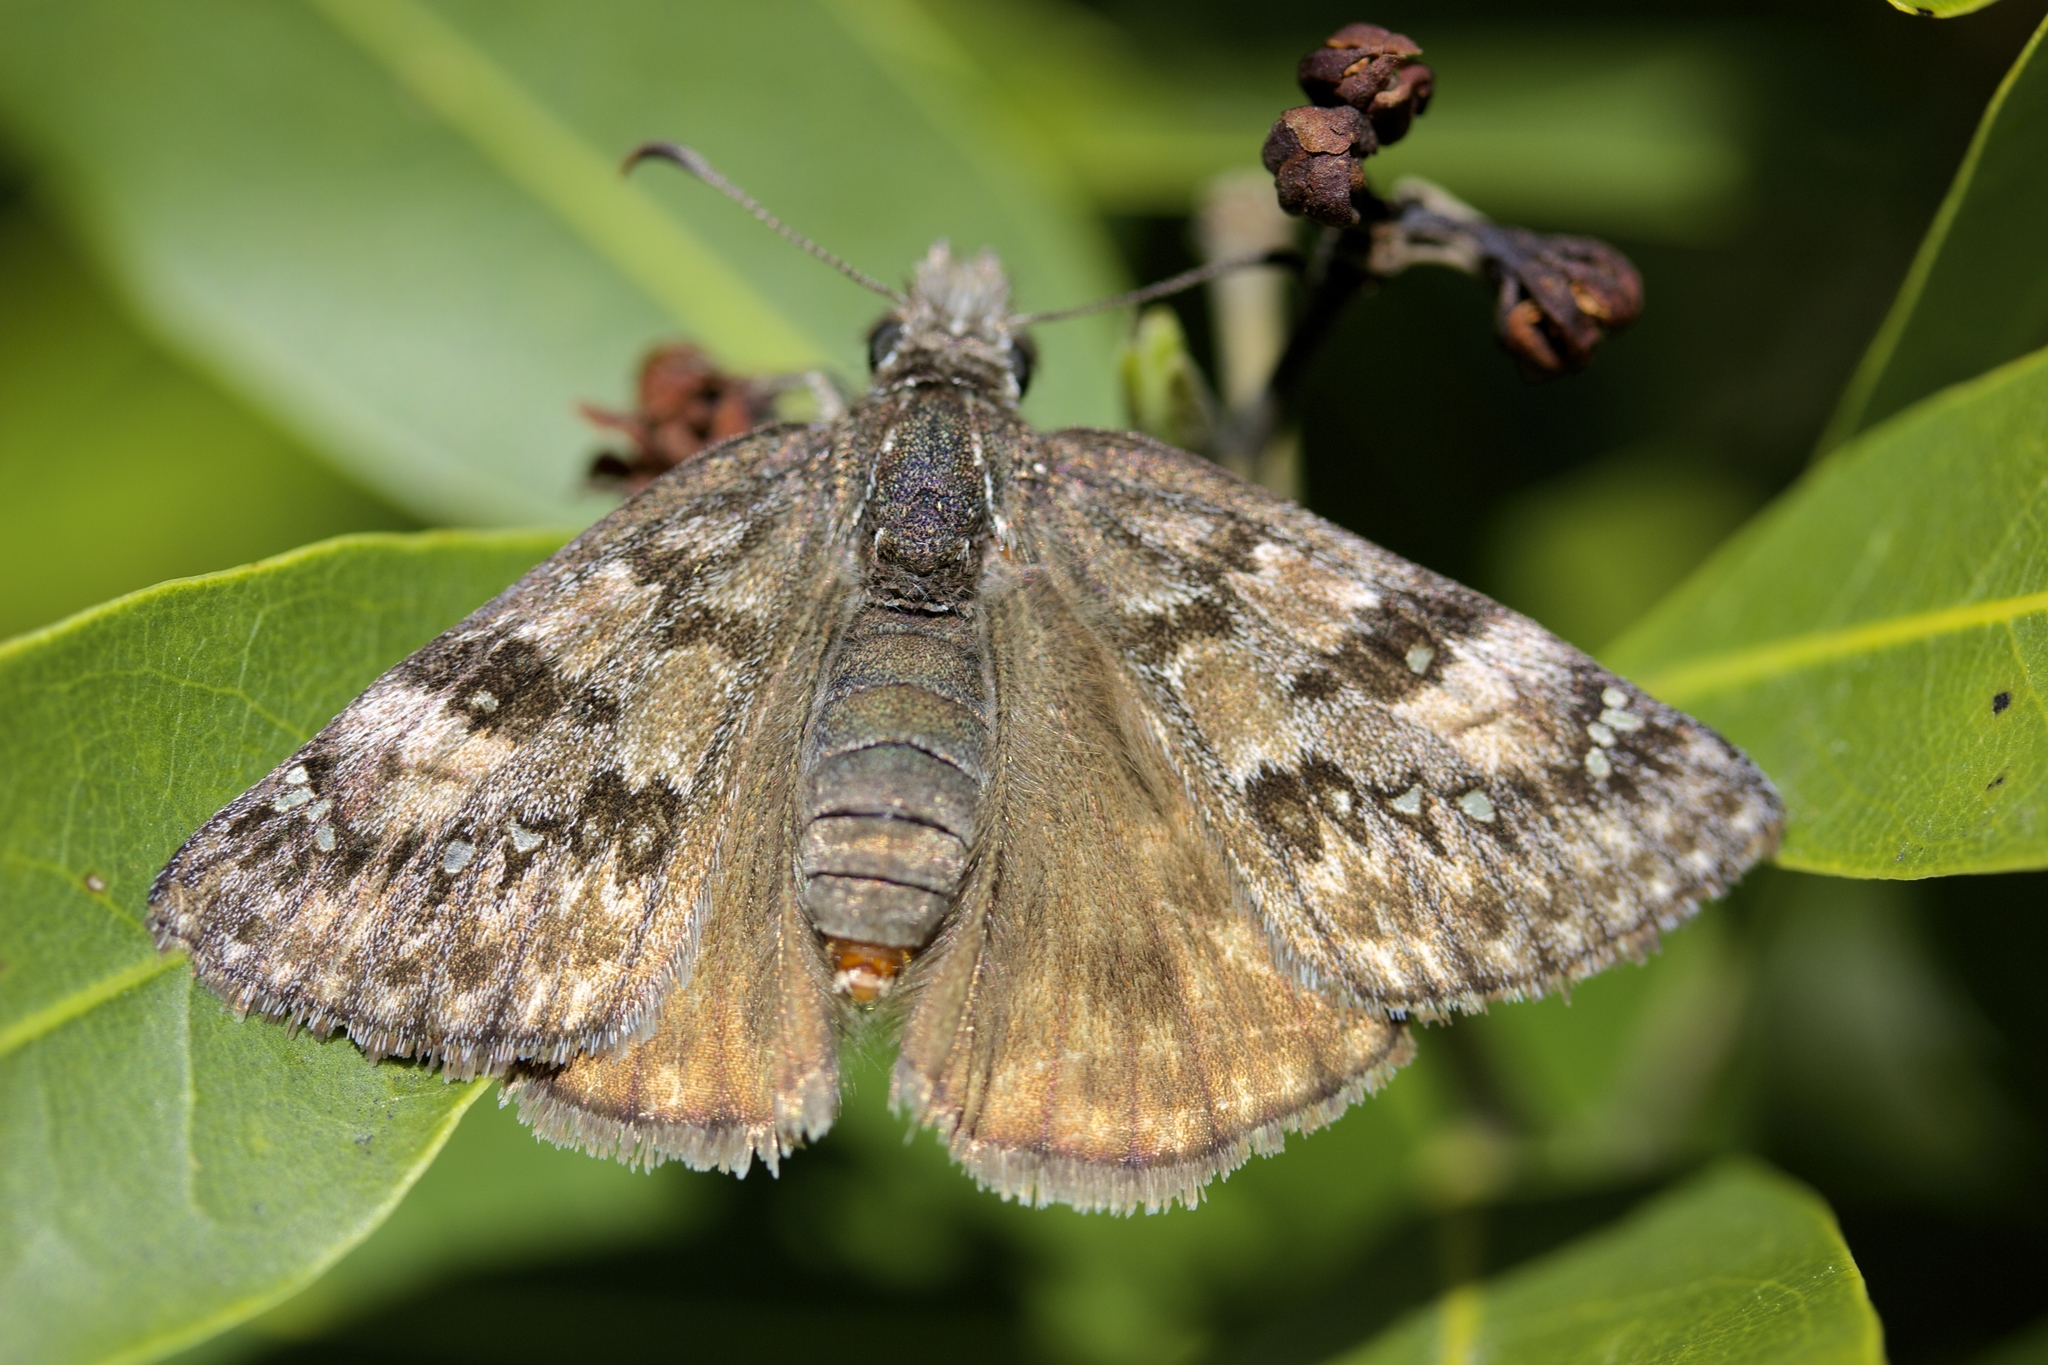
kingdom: Animalia
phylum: Arthropoda
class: Insecta
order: Lepidoptera
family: Hesperiidae
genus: Erynnis
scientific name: Erynnis propertius
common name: Propertius duskywing
